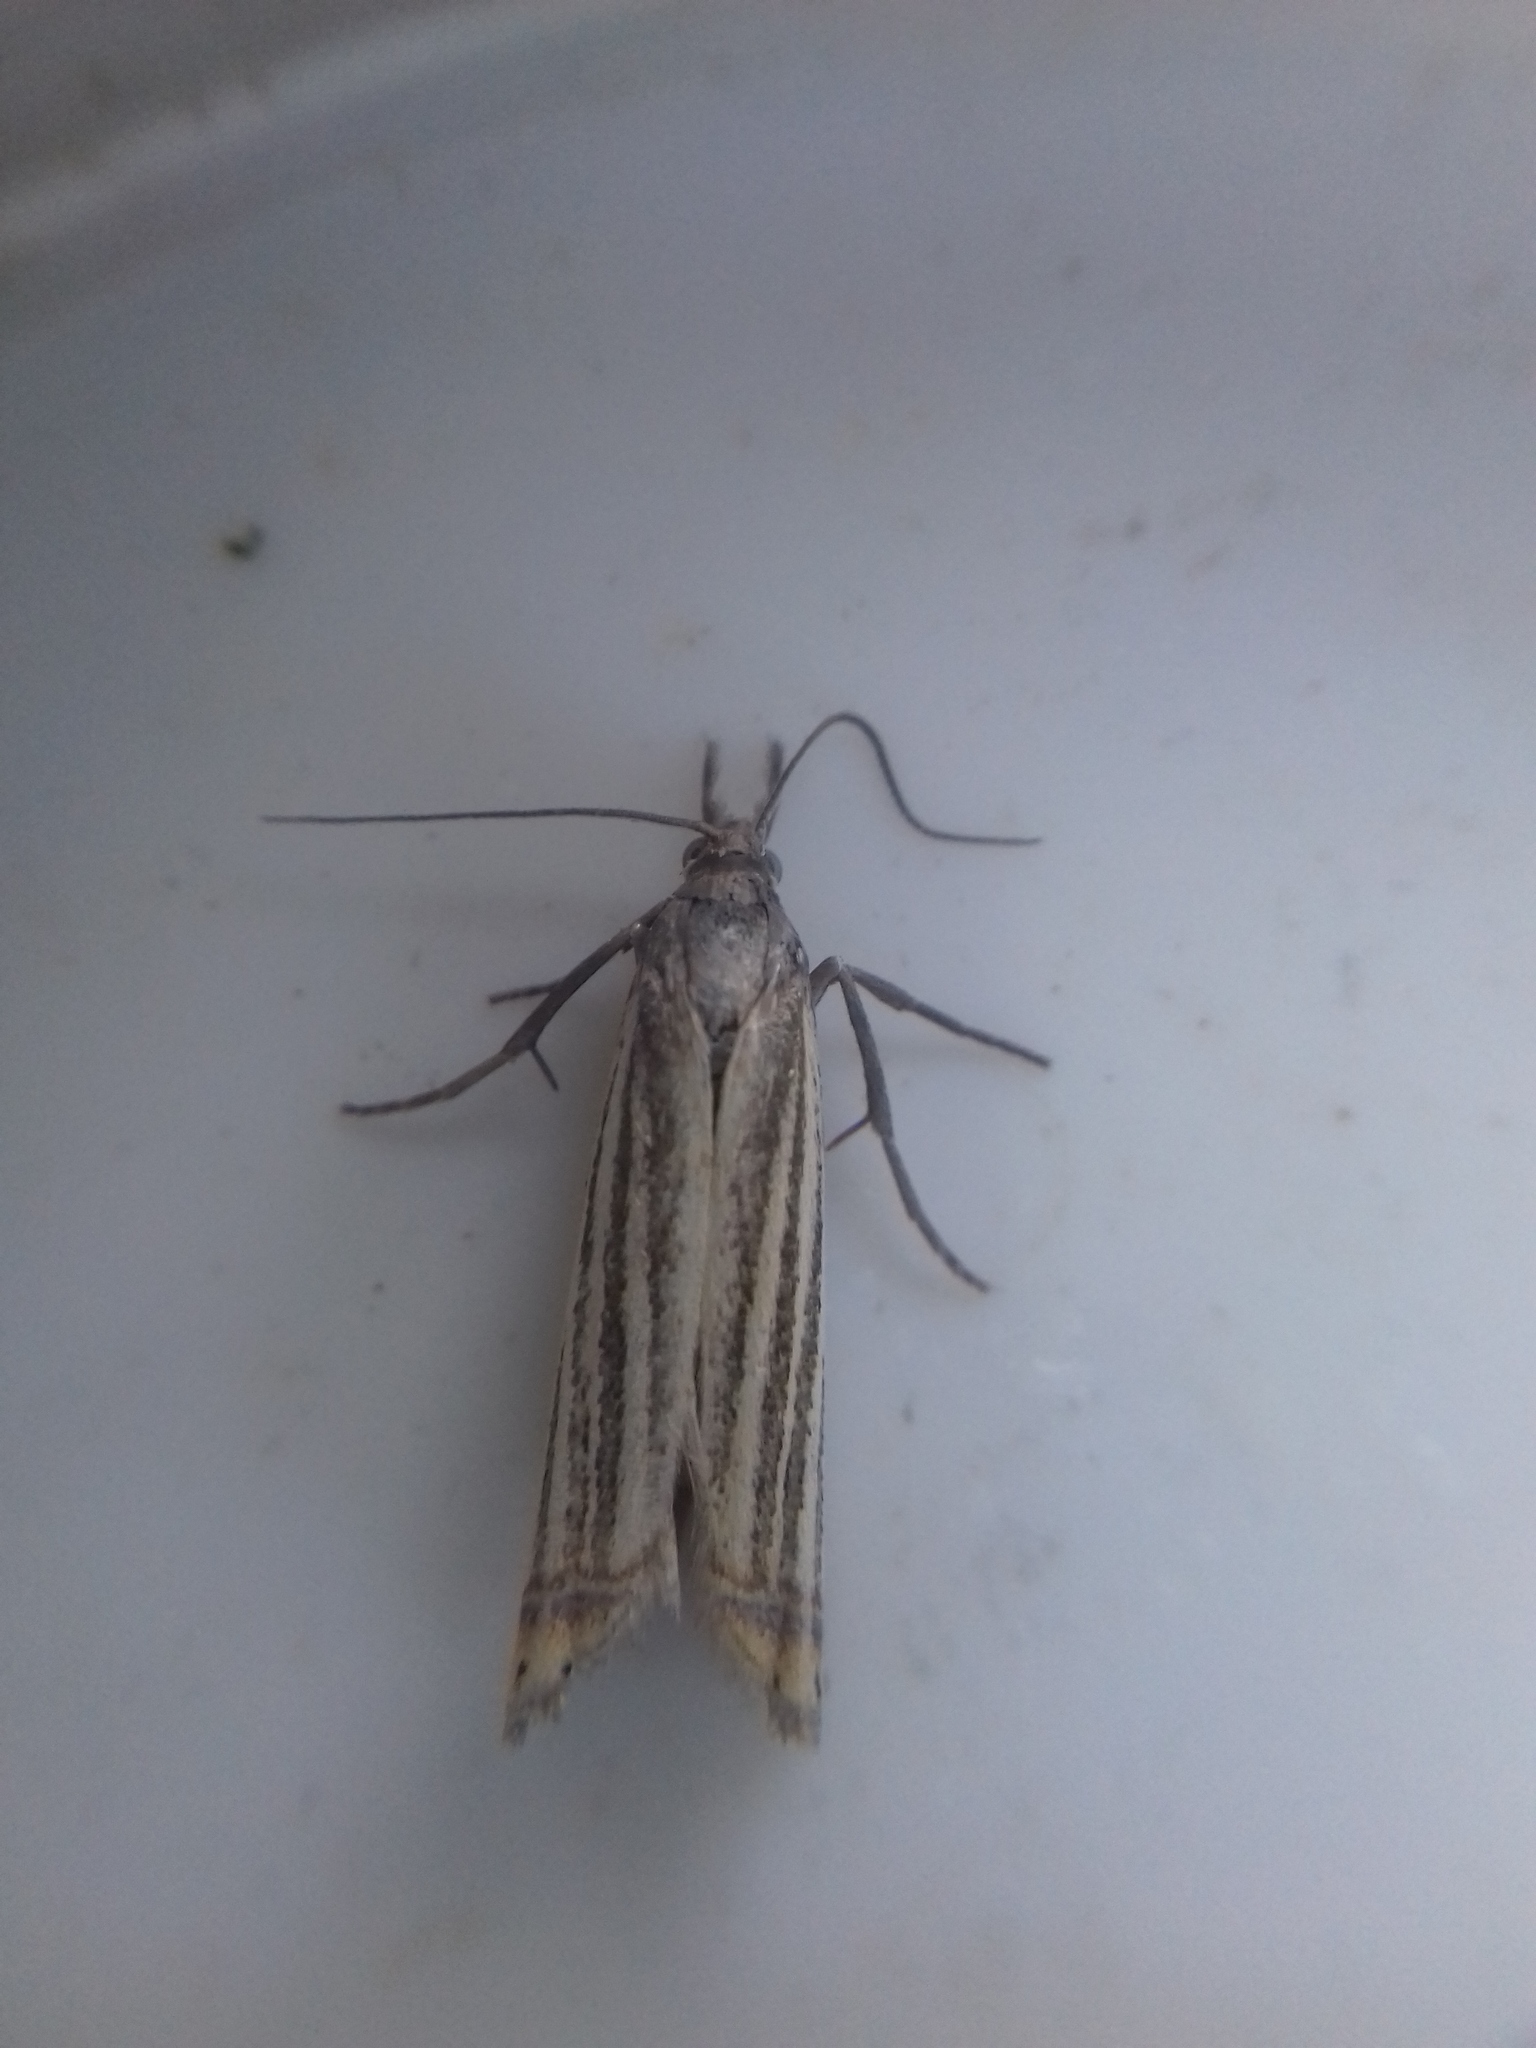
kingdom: Animalia
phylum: Arthropoda
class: Insecta
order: Lepidoptera
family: Crambidae
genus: Chrysoteuchia
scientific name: Chrysoteuchia culmella
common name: Garden grass-veneer
